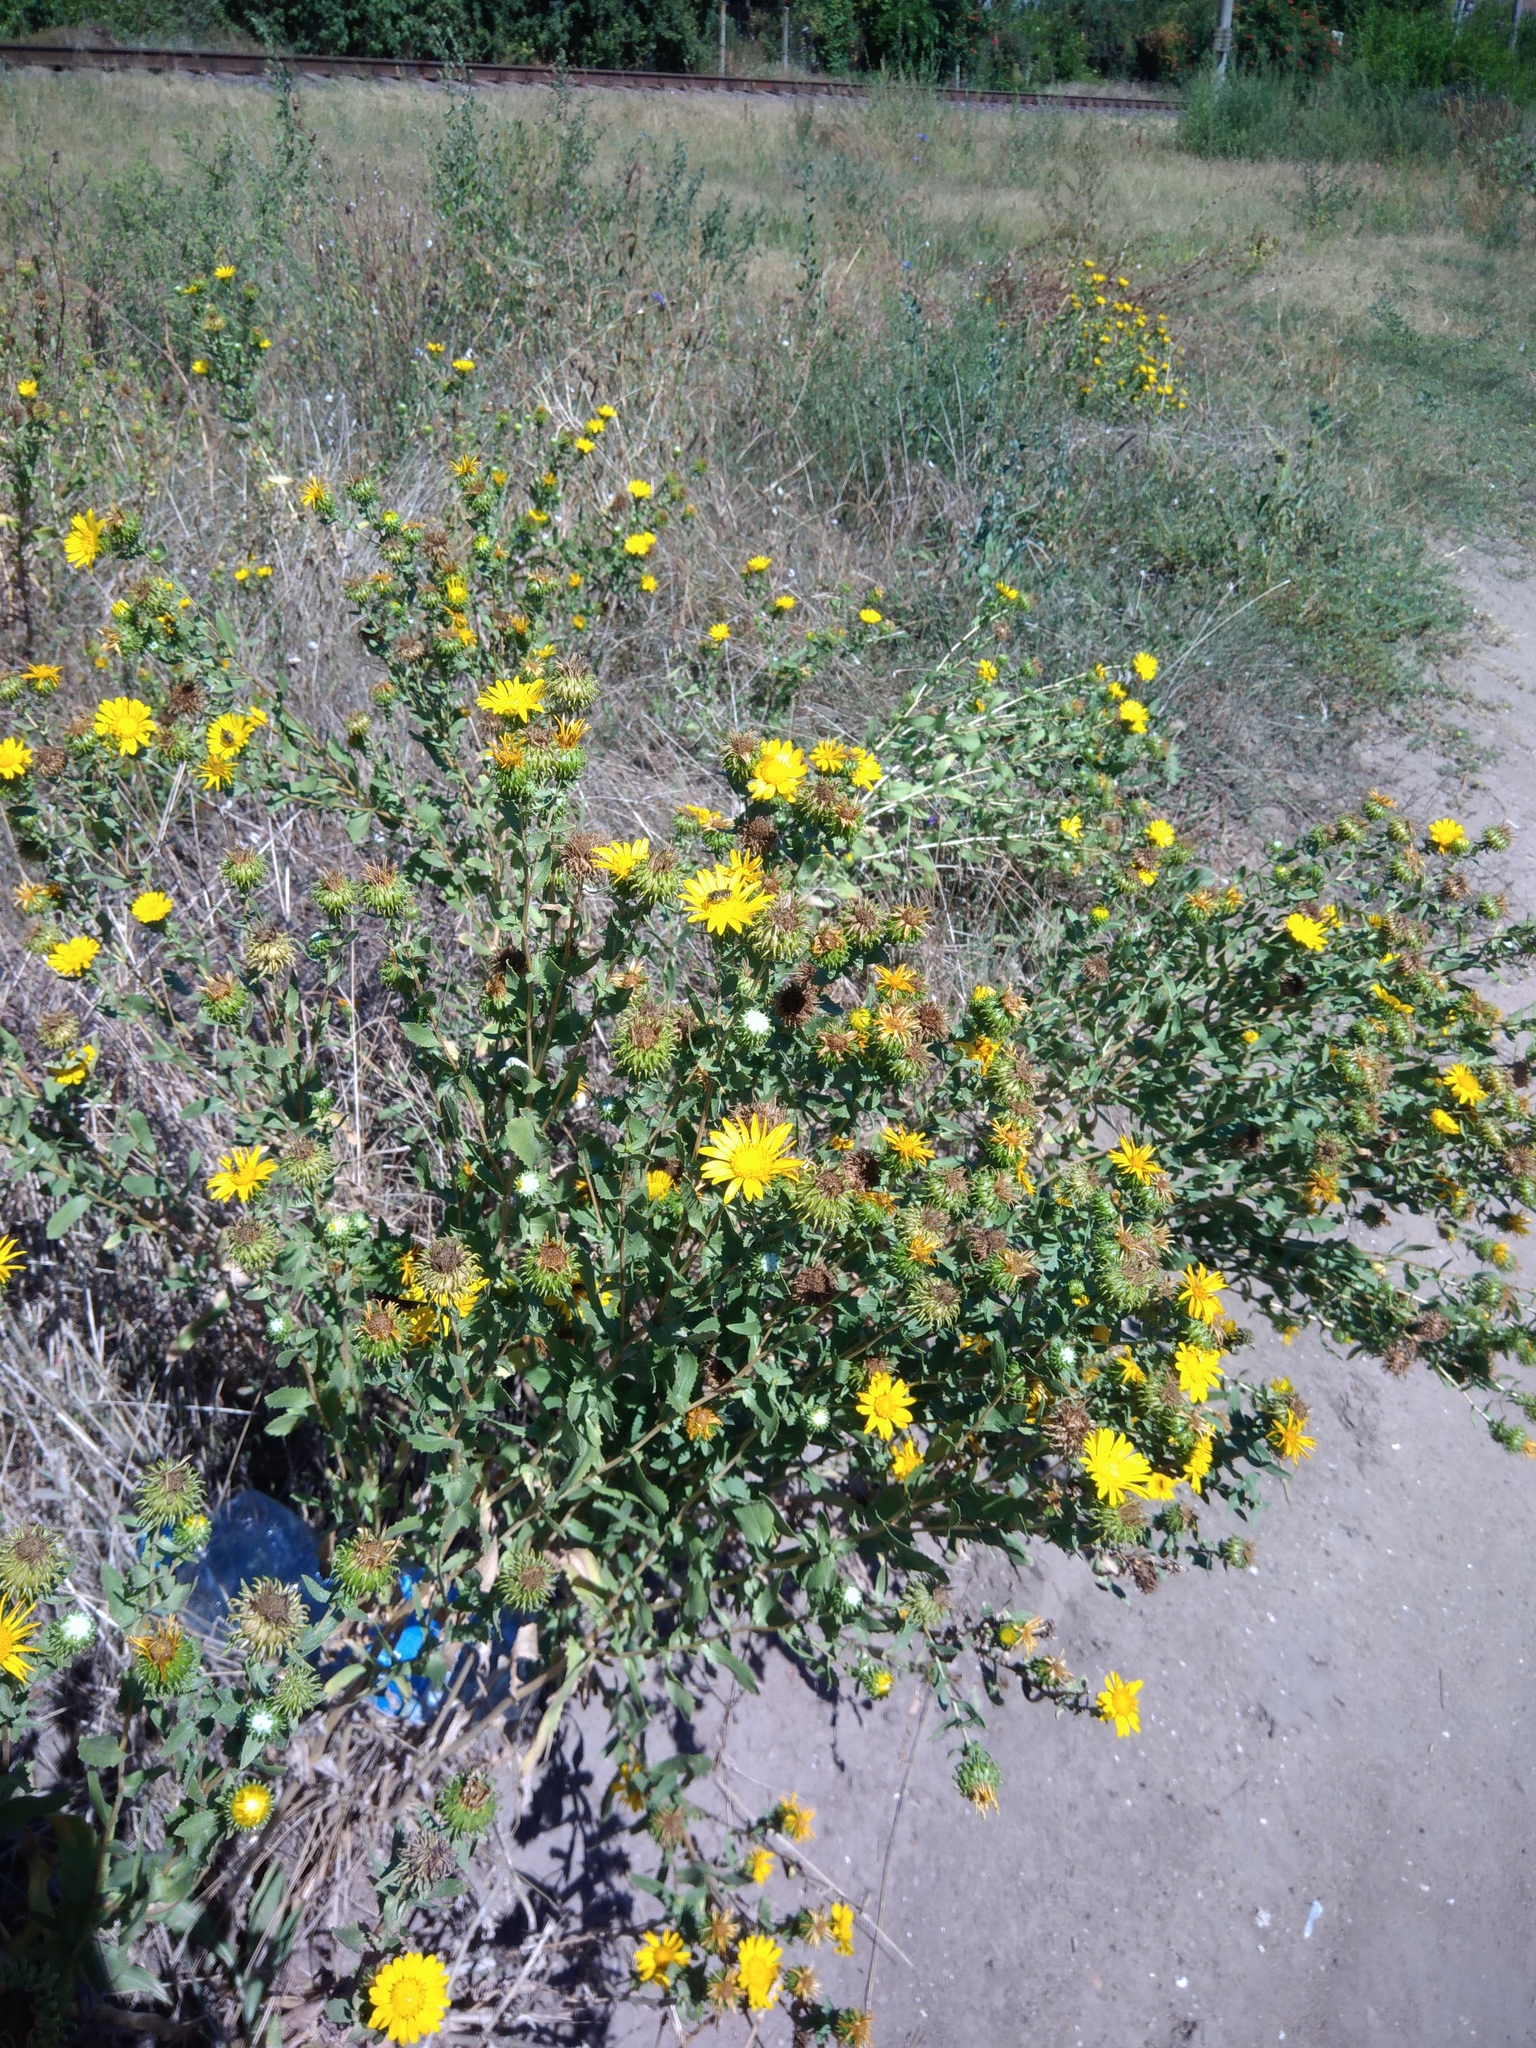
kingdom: Plantae
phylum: Tracheophyta
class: Magnoliopsida
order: Asterales
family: Asteraceae
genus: Grindelia
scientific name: Grindelia squarrosa
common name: Curly-cup gumweed
